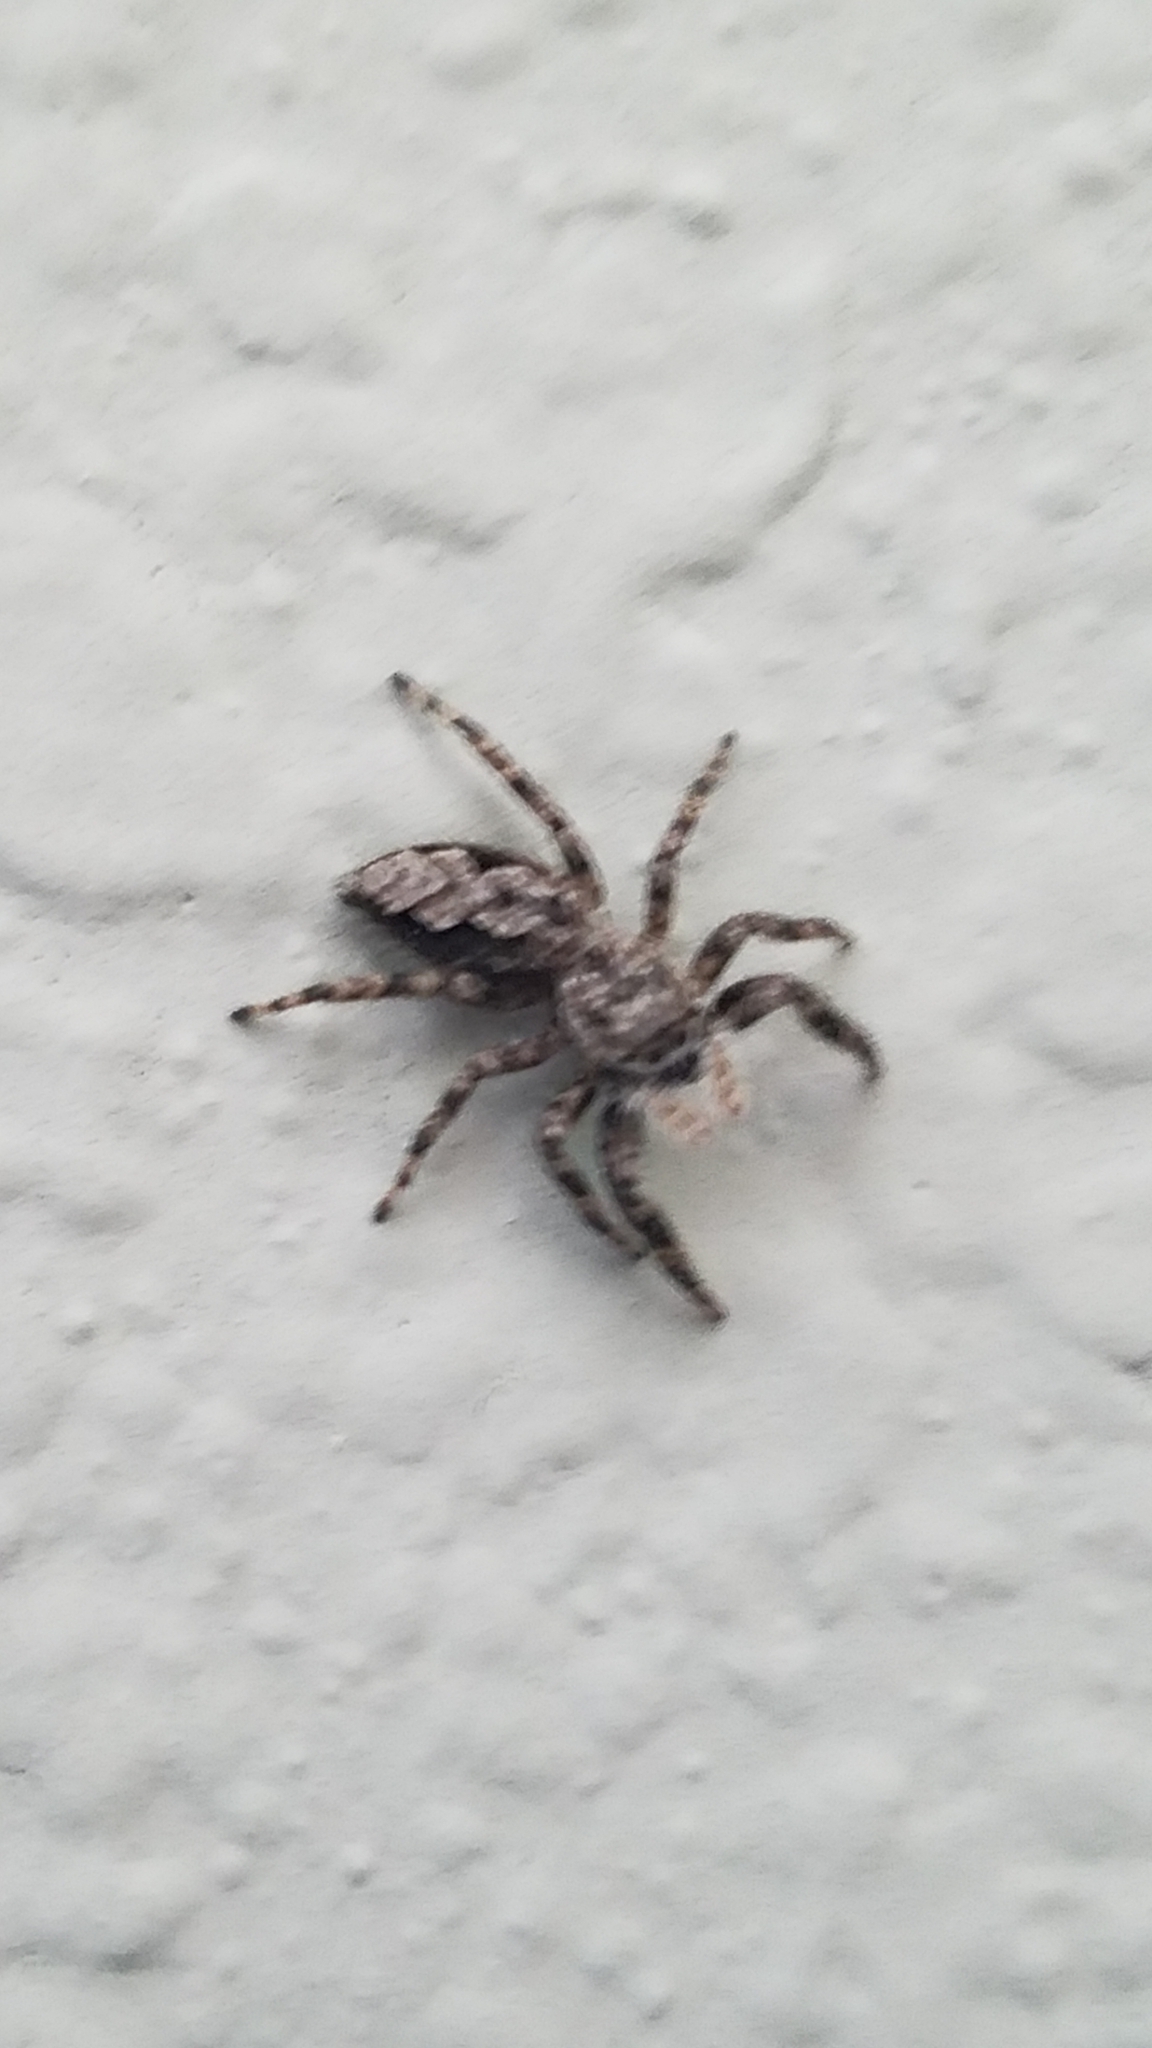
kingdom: Animalia
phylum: Arthropoda
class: Arachnida
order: Araneae
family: Salticidae
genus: Platycryptus
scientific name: Platycryptus undatus
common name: Tan jumping spider
